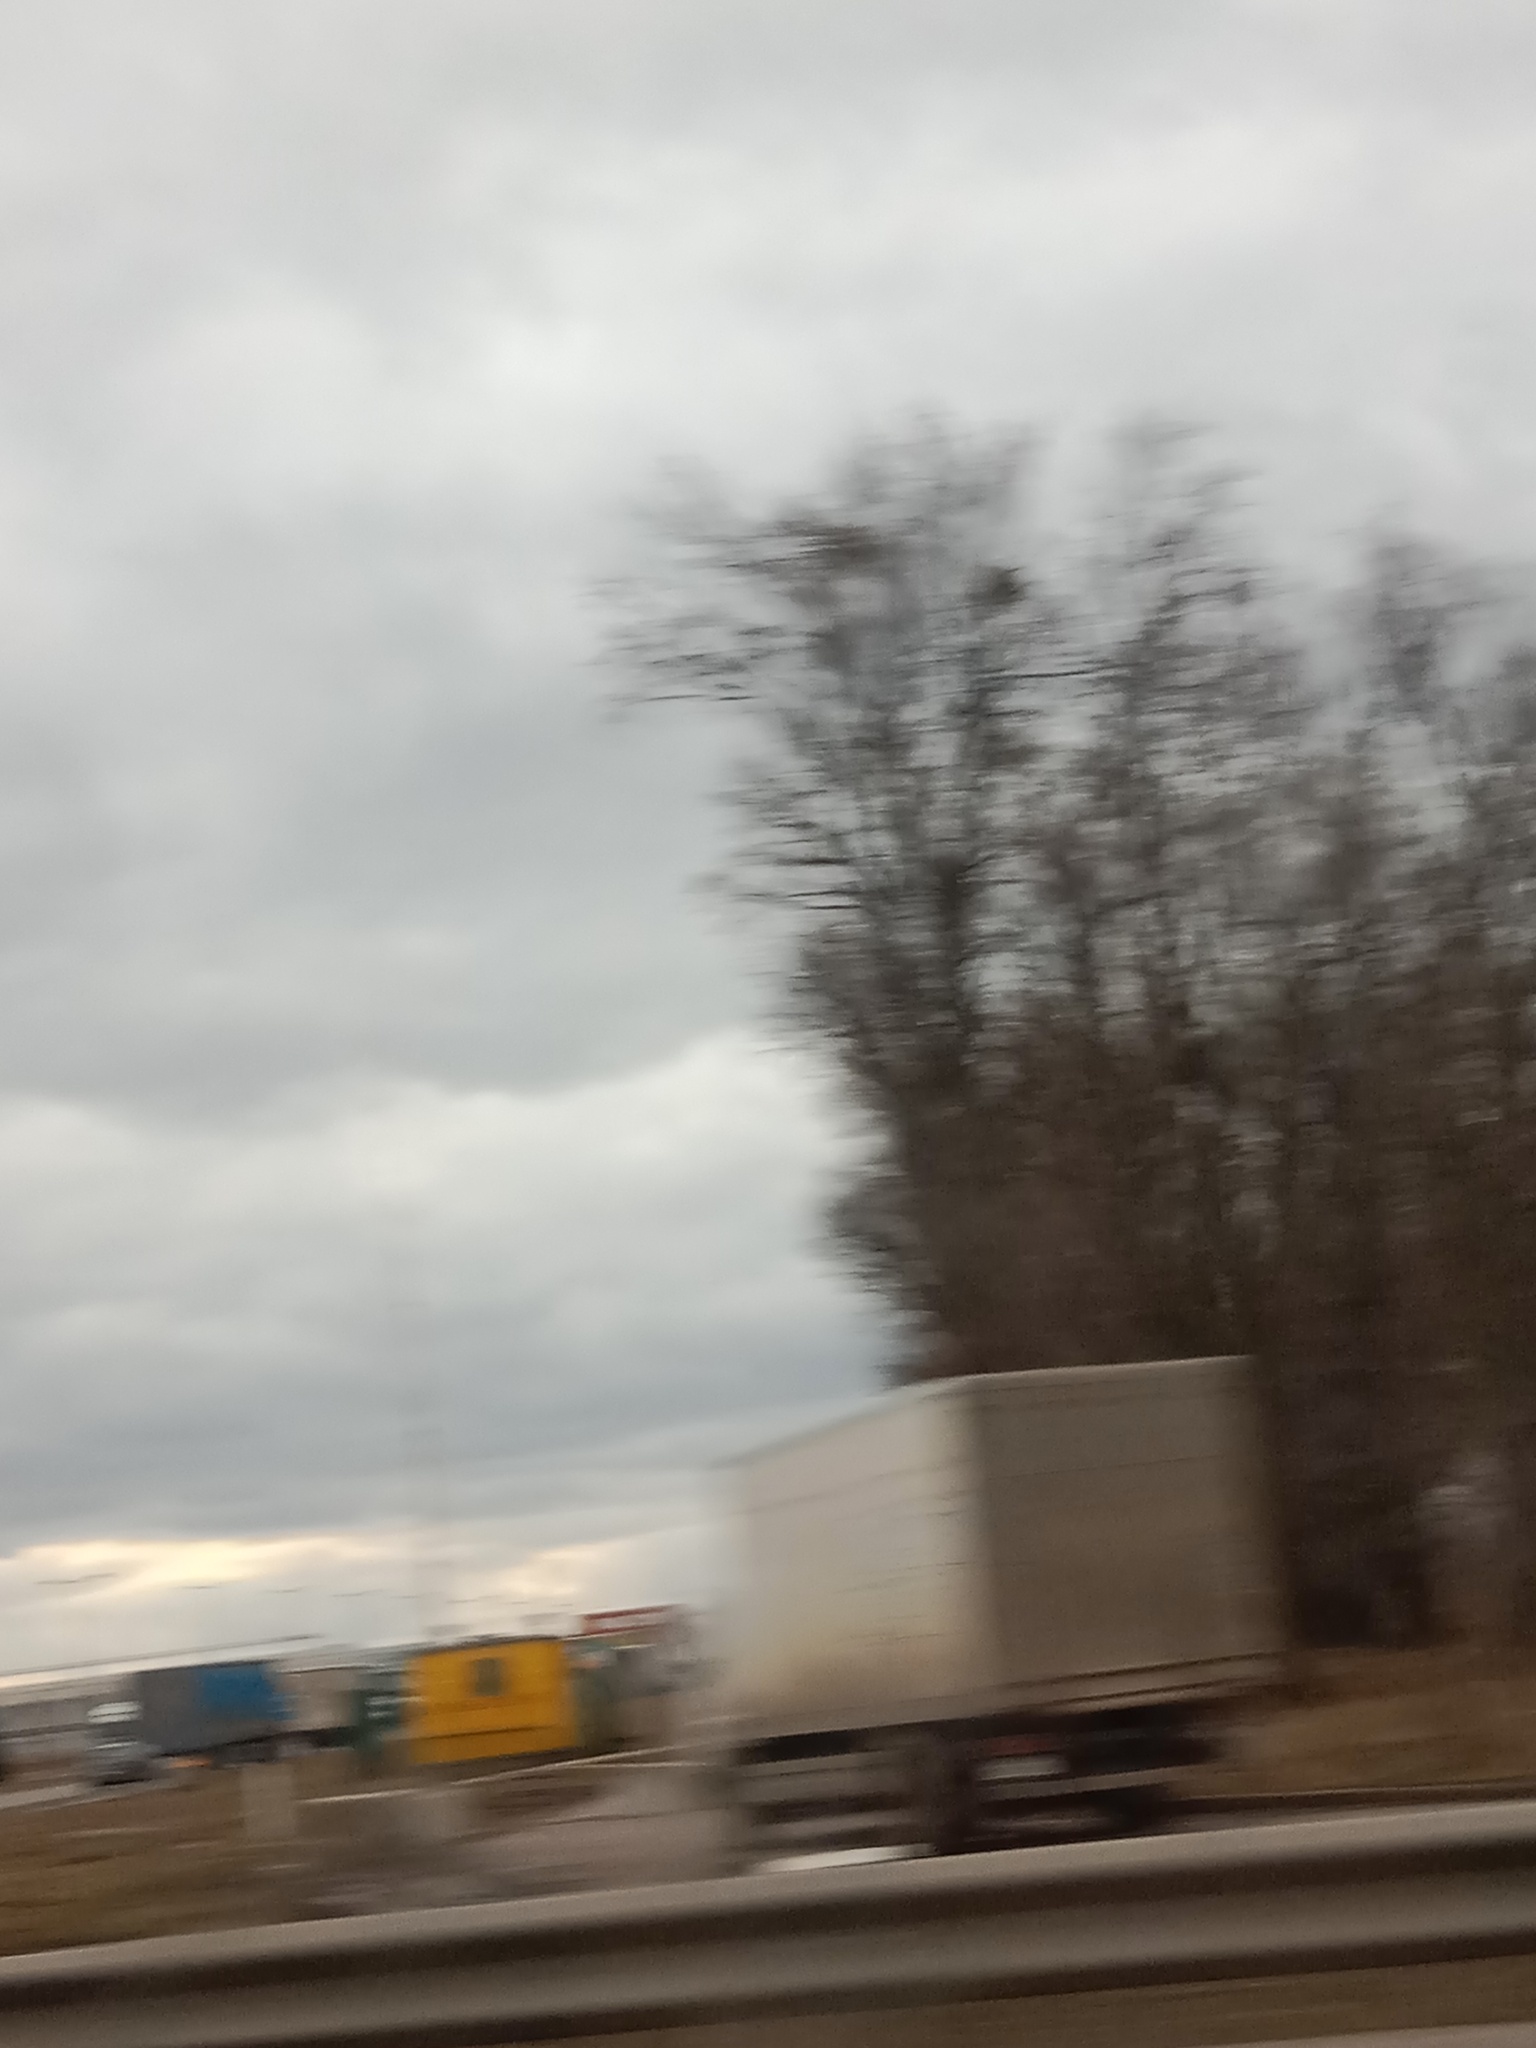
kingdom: Plantae
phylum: Tracheophyta
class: Magnoliopsida
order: Santalales
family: Viscaceae
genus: Viscum
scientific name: Viscum album
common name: Mistletoe
